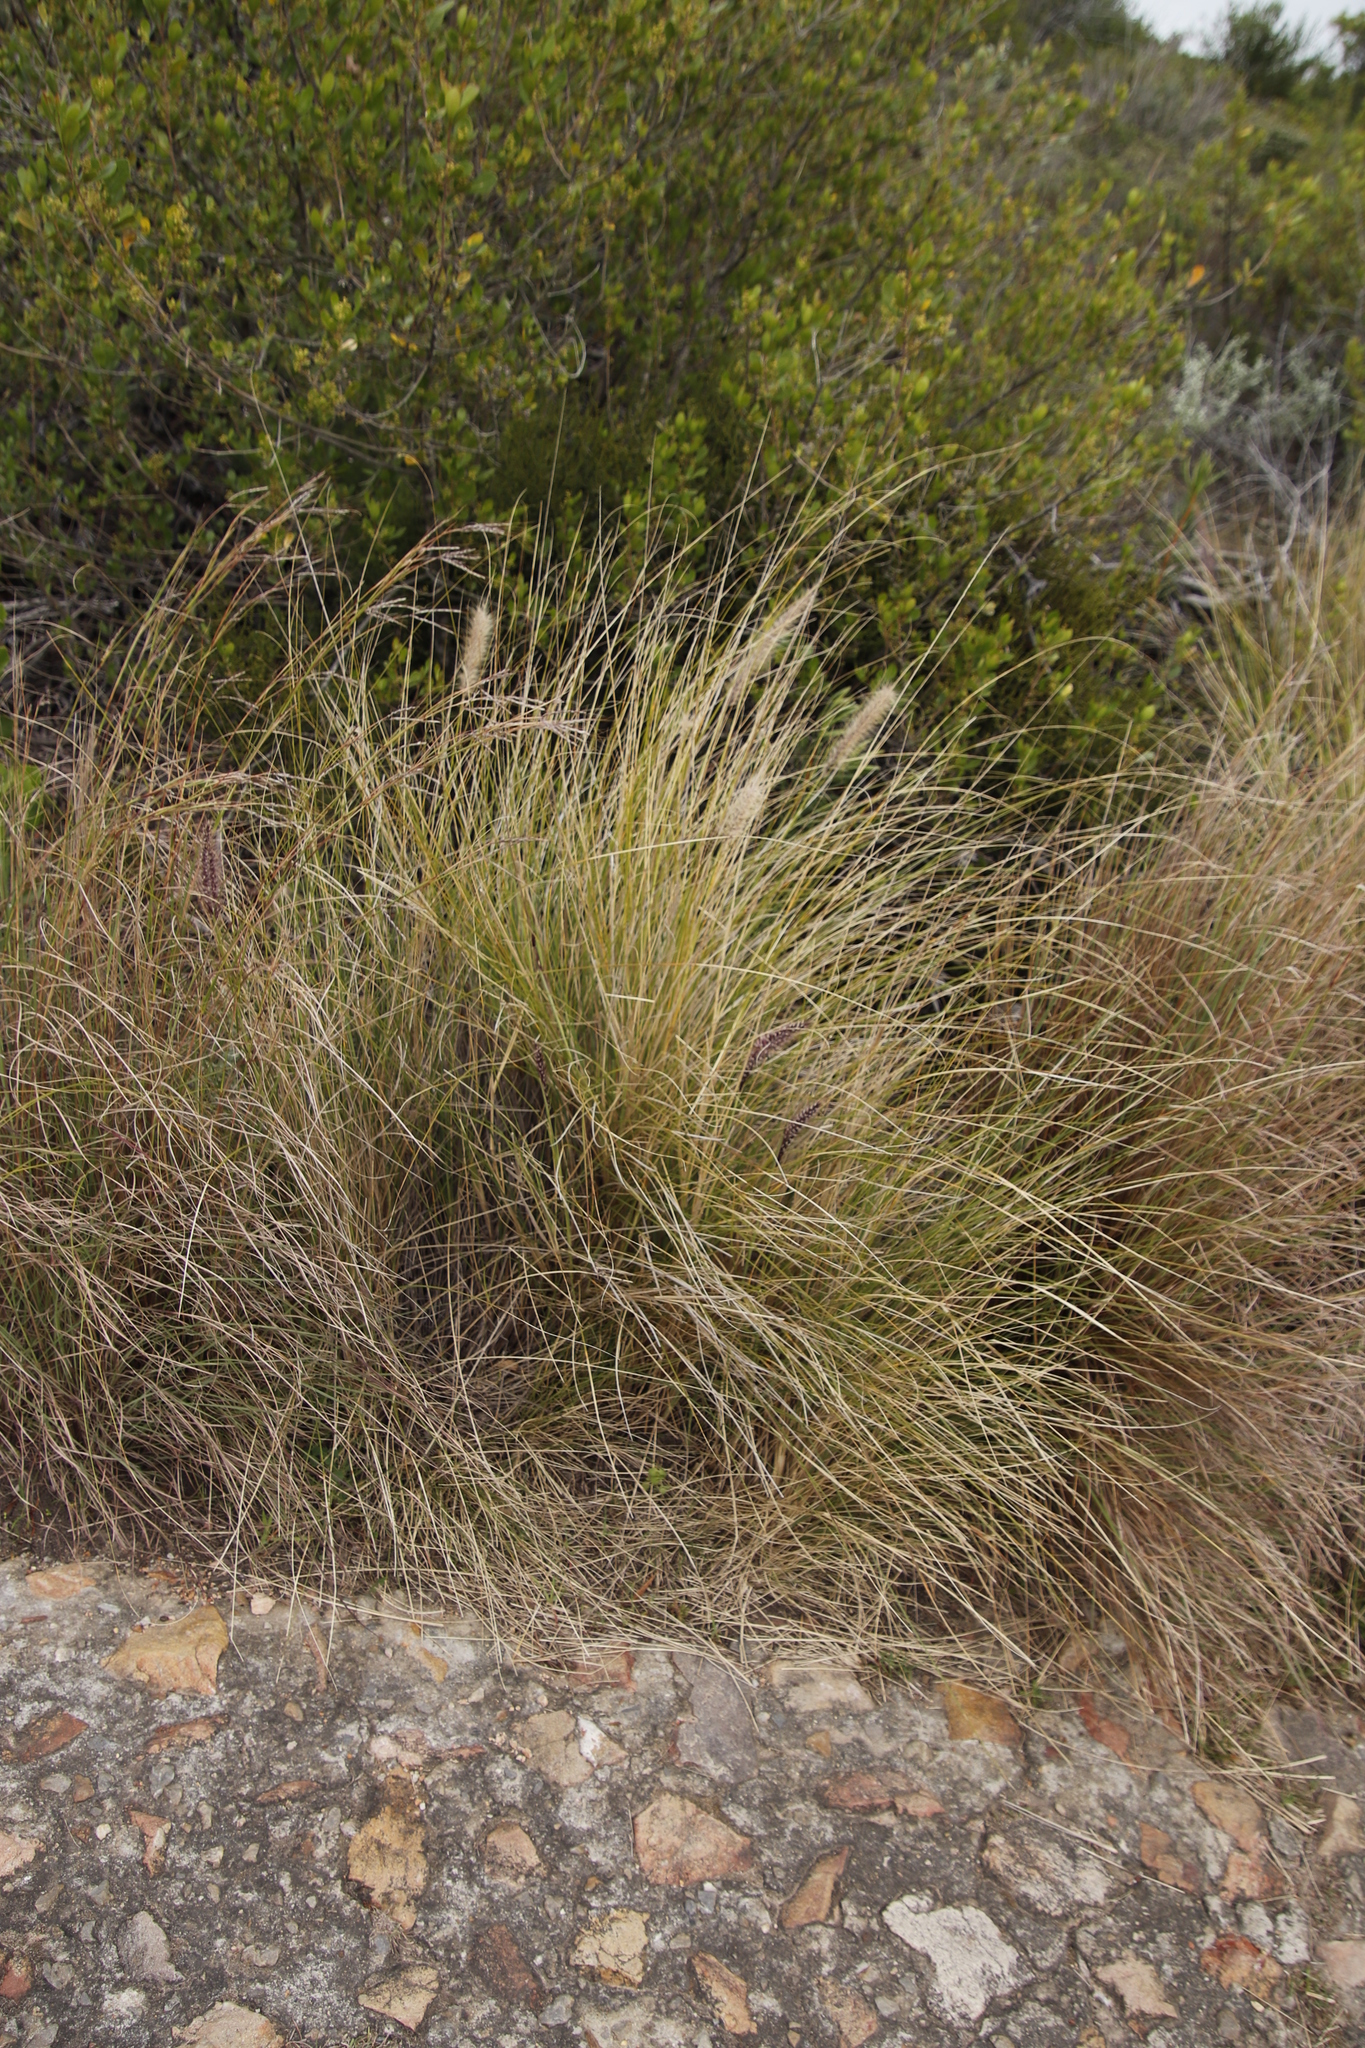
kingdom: Plantae
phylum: Tracheophyta
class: Liliopsida
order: Poales
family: Poaceae
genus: Cenchrus
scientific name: Cenchrus setaceus
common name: Crimson fountaingrass
